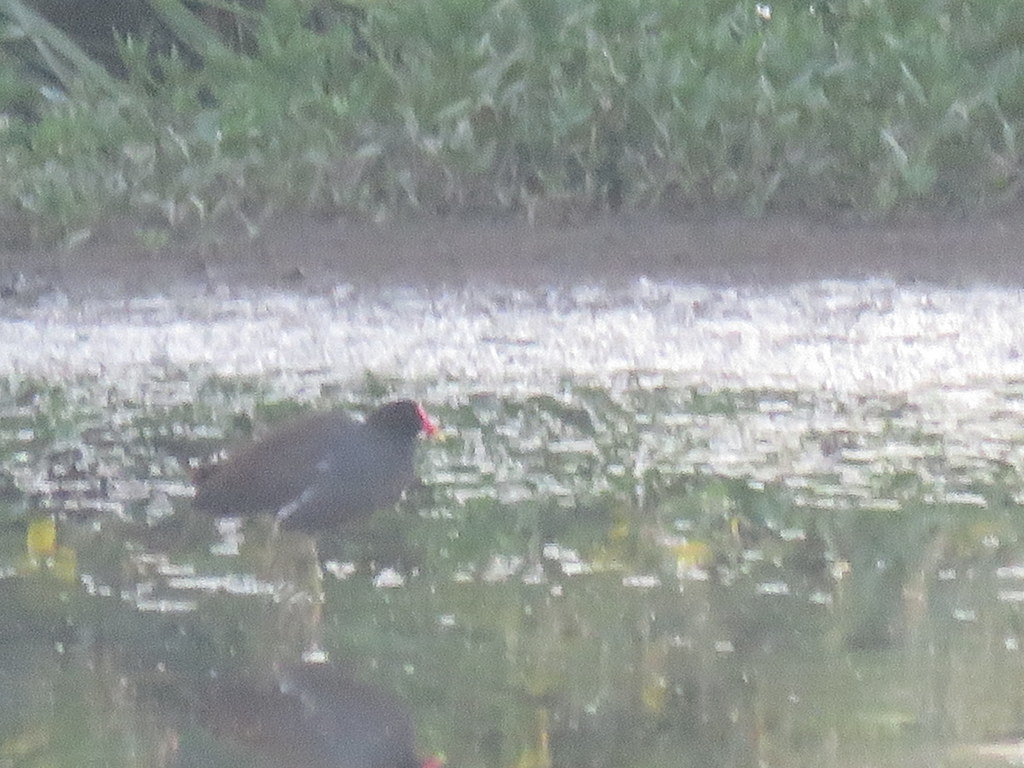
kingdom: Animalia
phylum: Chordata
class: Aves
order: Gruiformes
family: Rallidae
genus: Gallinula
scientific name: Gallinula chloropus
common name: Common moorhen
